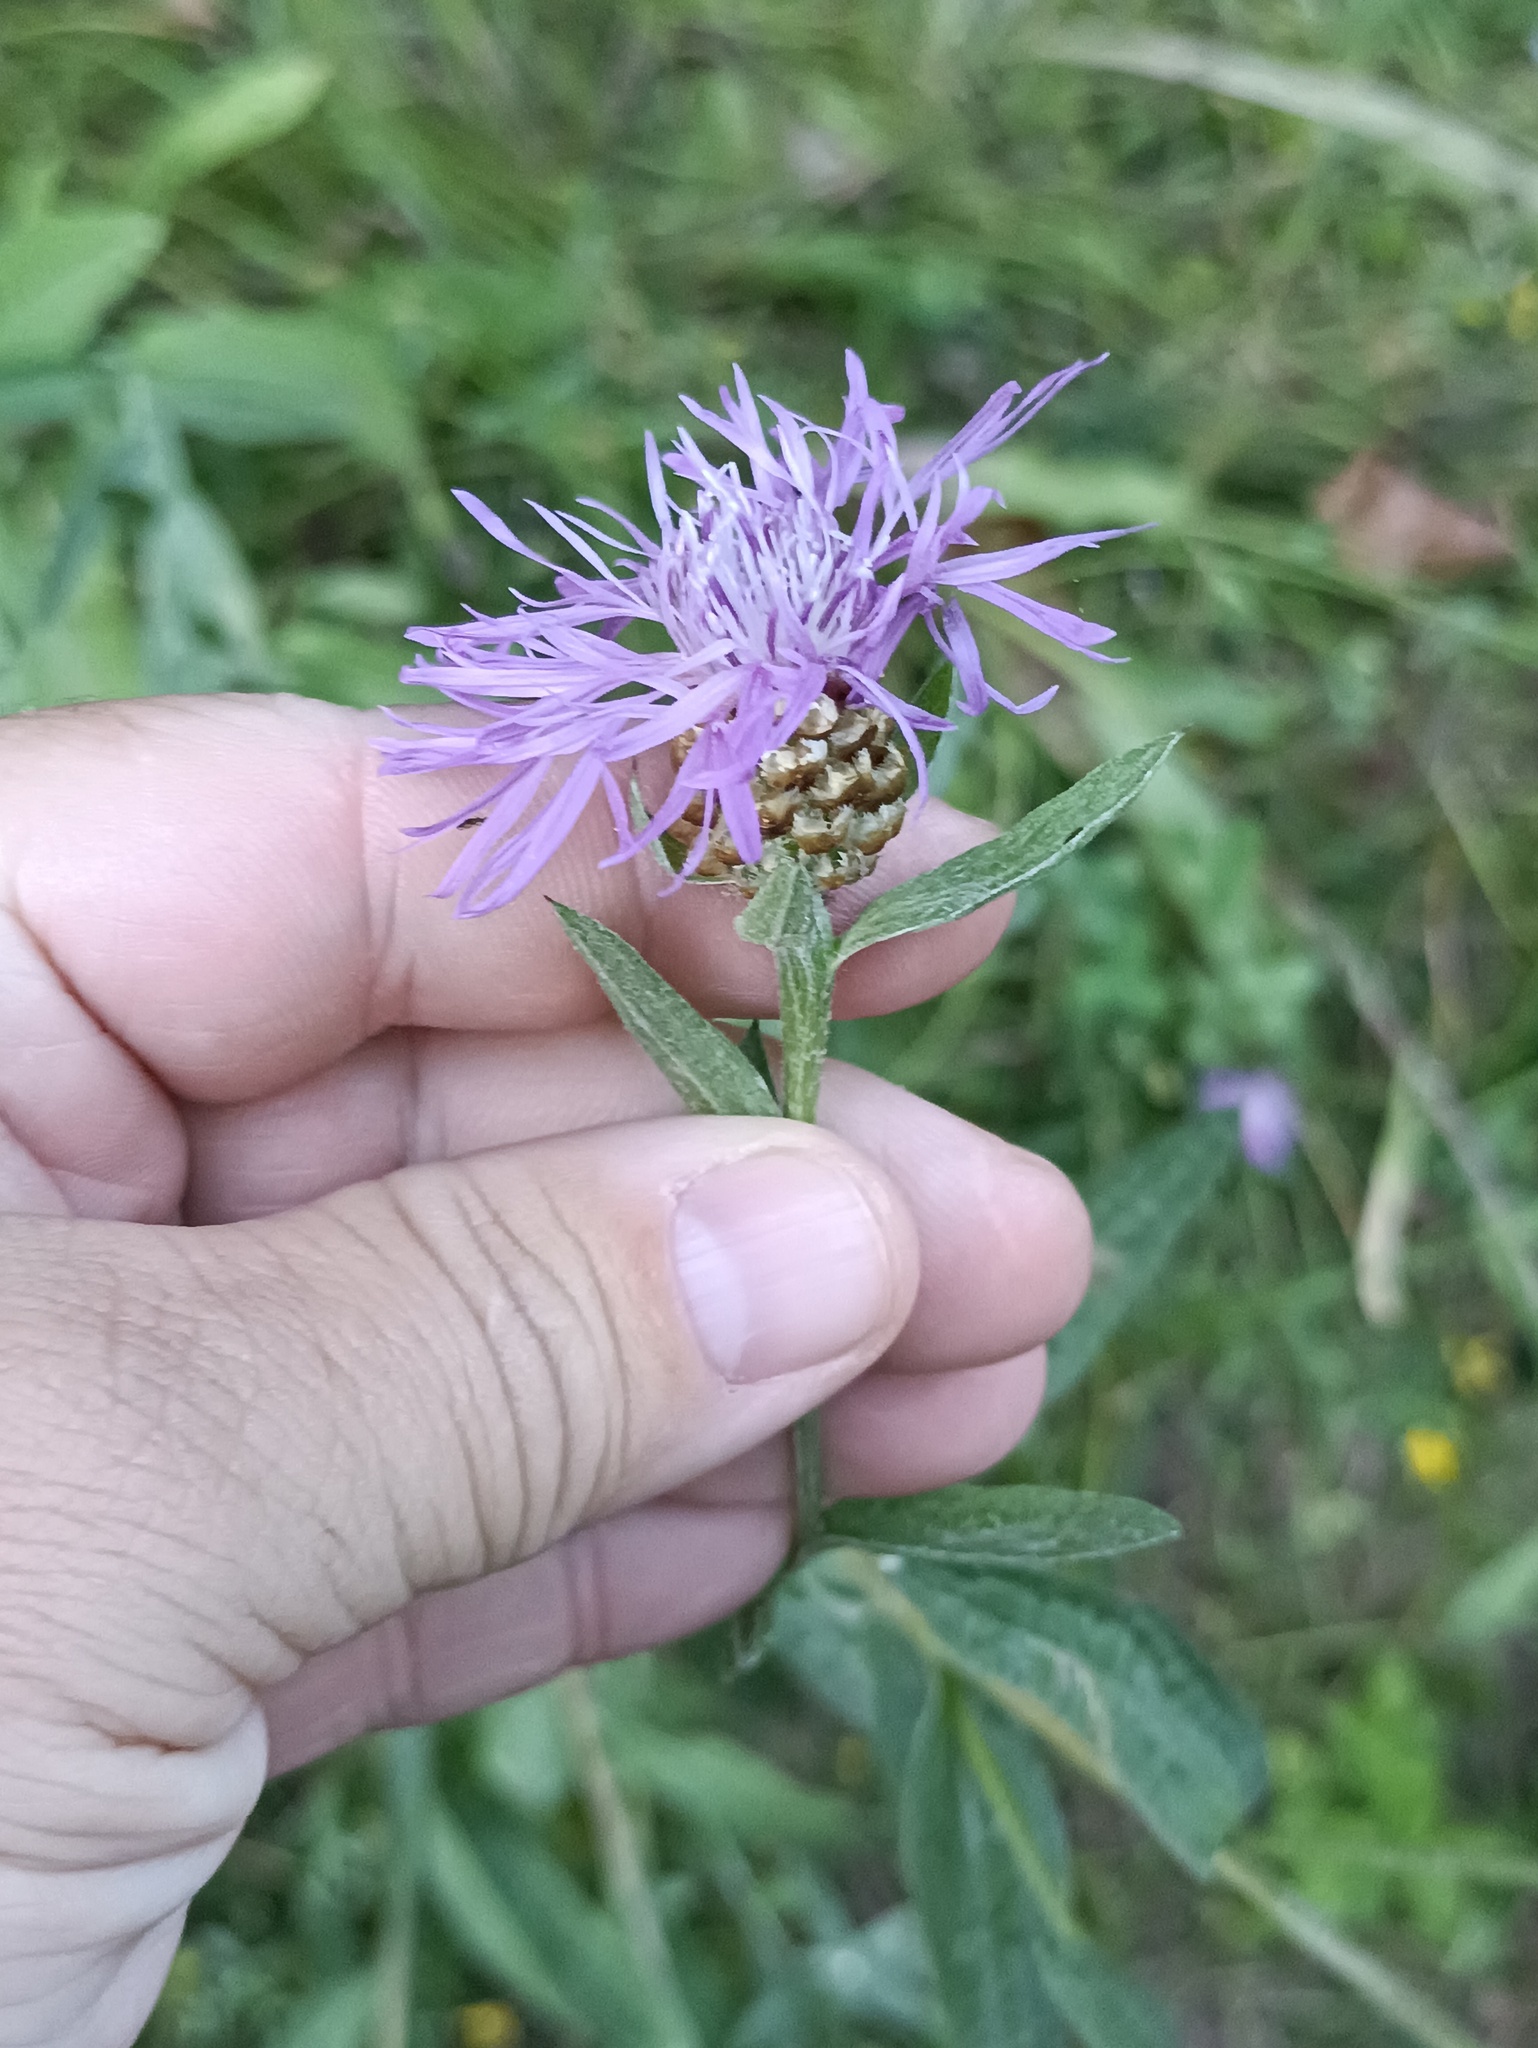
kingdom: Plantae
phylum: Tracheophyta
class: Magnoliopsida
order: Asterales
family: Asteraceae
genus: Centaurea
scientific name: Centaurea jacea
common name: Brown knapweed
